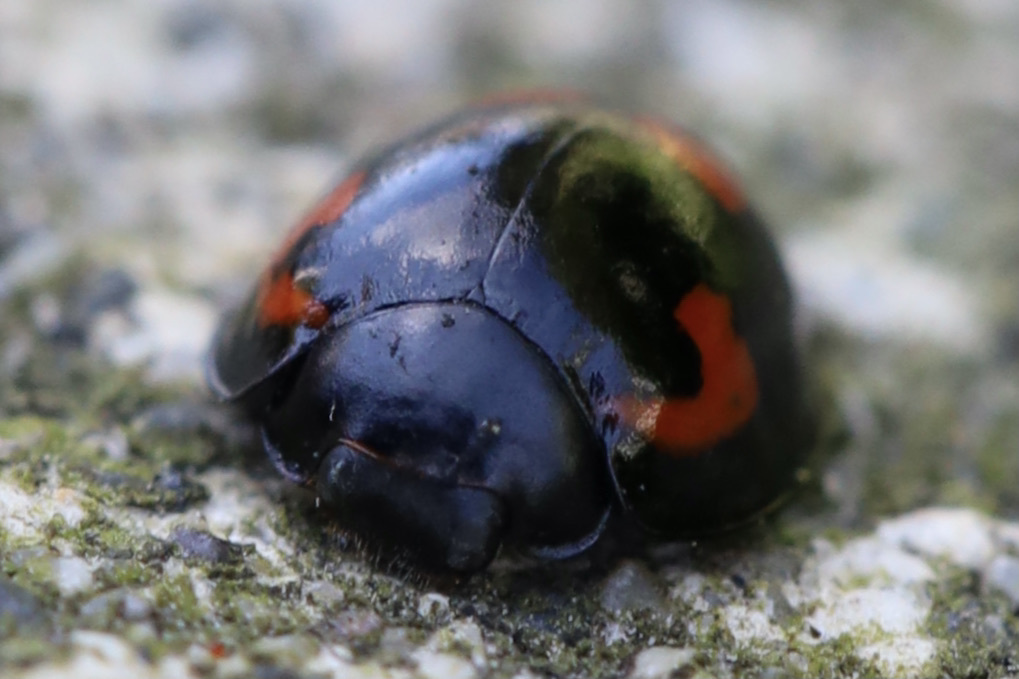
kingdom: Animalia
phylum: Arthropoda
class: Insecta
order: Coleoptera
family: Coccinellidae
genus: Brumus
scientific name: Brumus quadripustulatus
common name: Ladybird beetle
